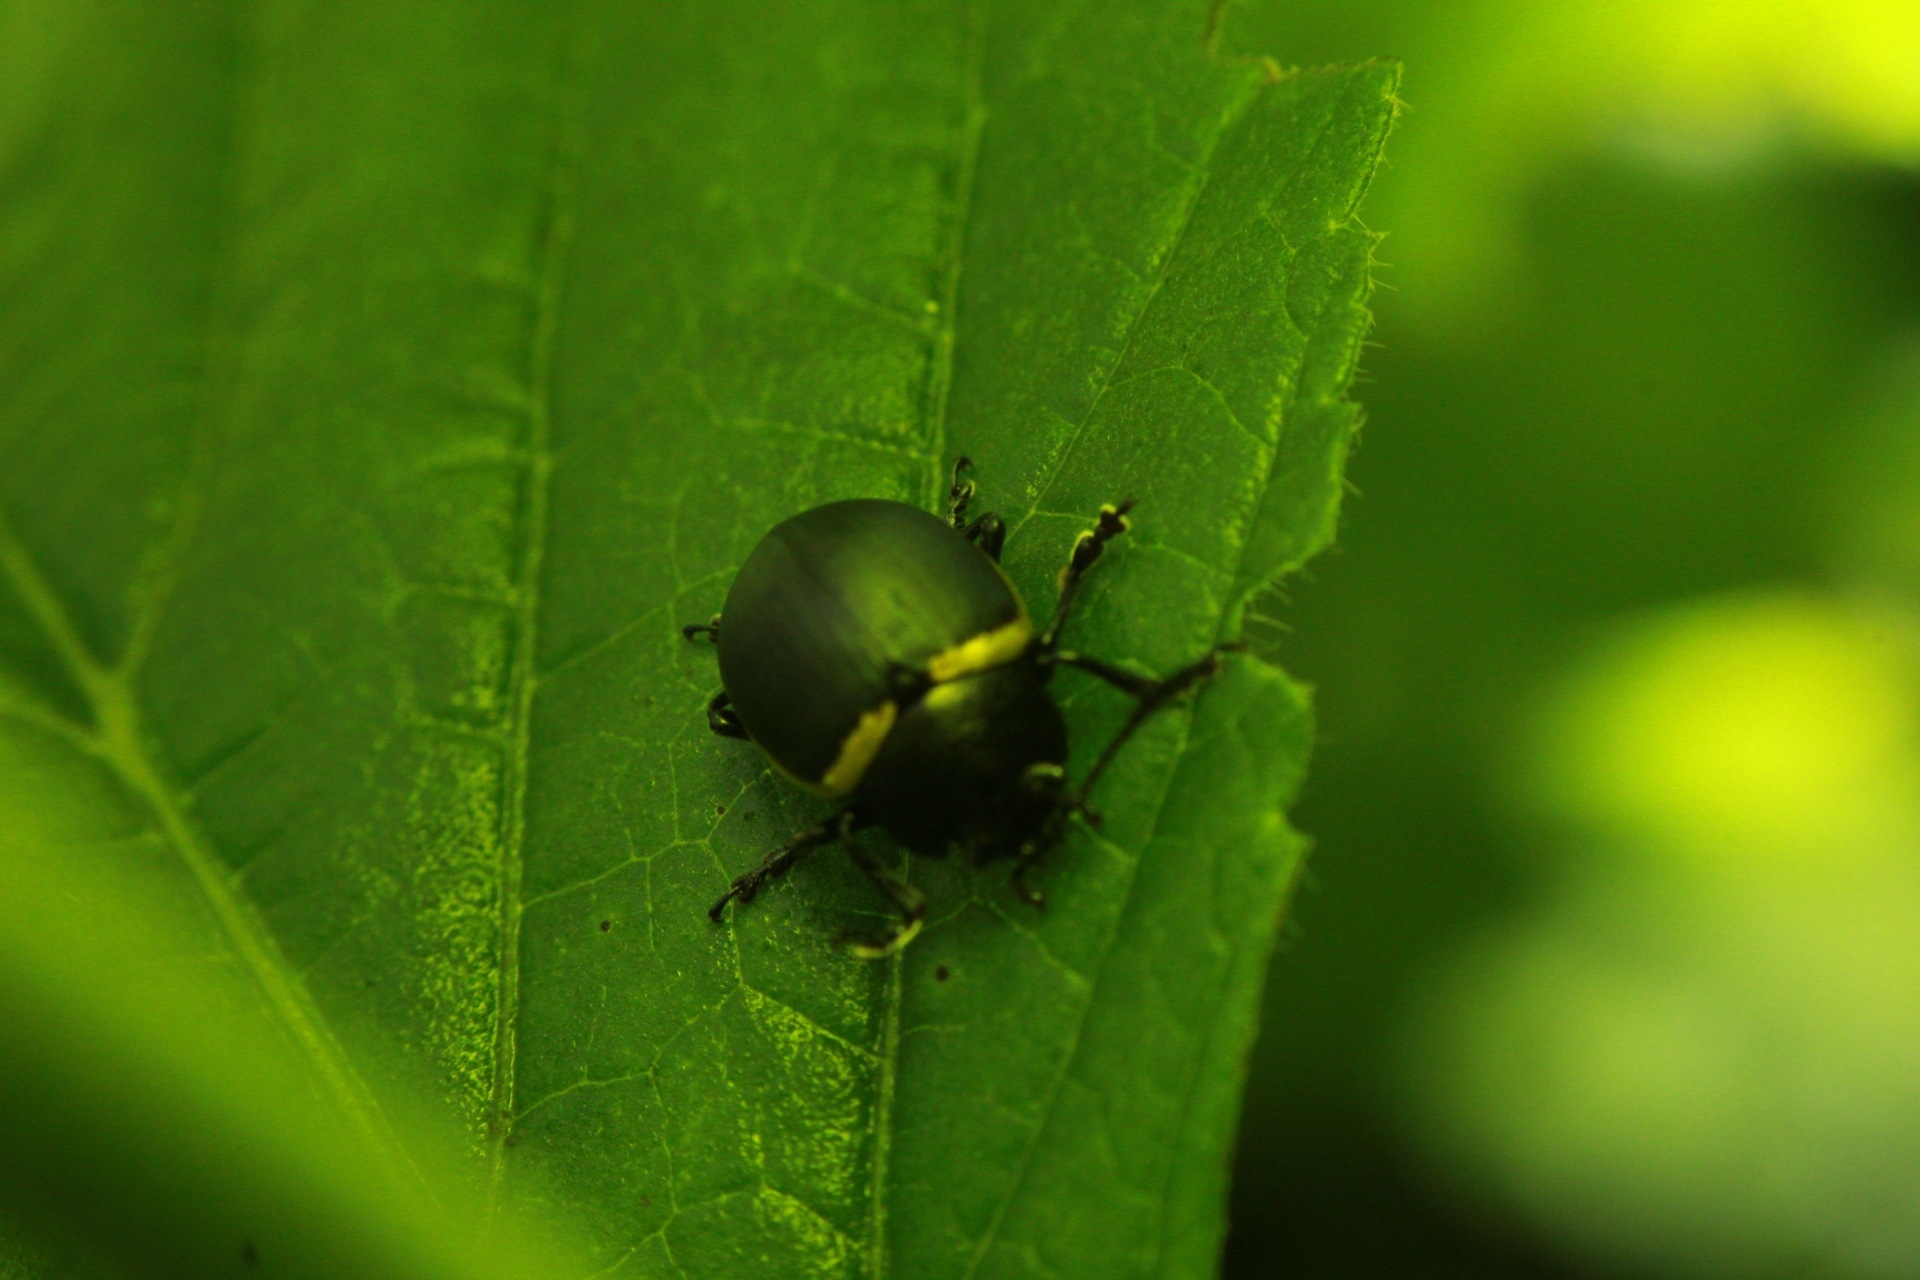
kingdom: Animalia
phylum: Arthropoda
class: Insecta
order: Coleoptera
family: Chrysomelidae
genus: Cosmogramma
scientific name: Cosmogramma
